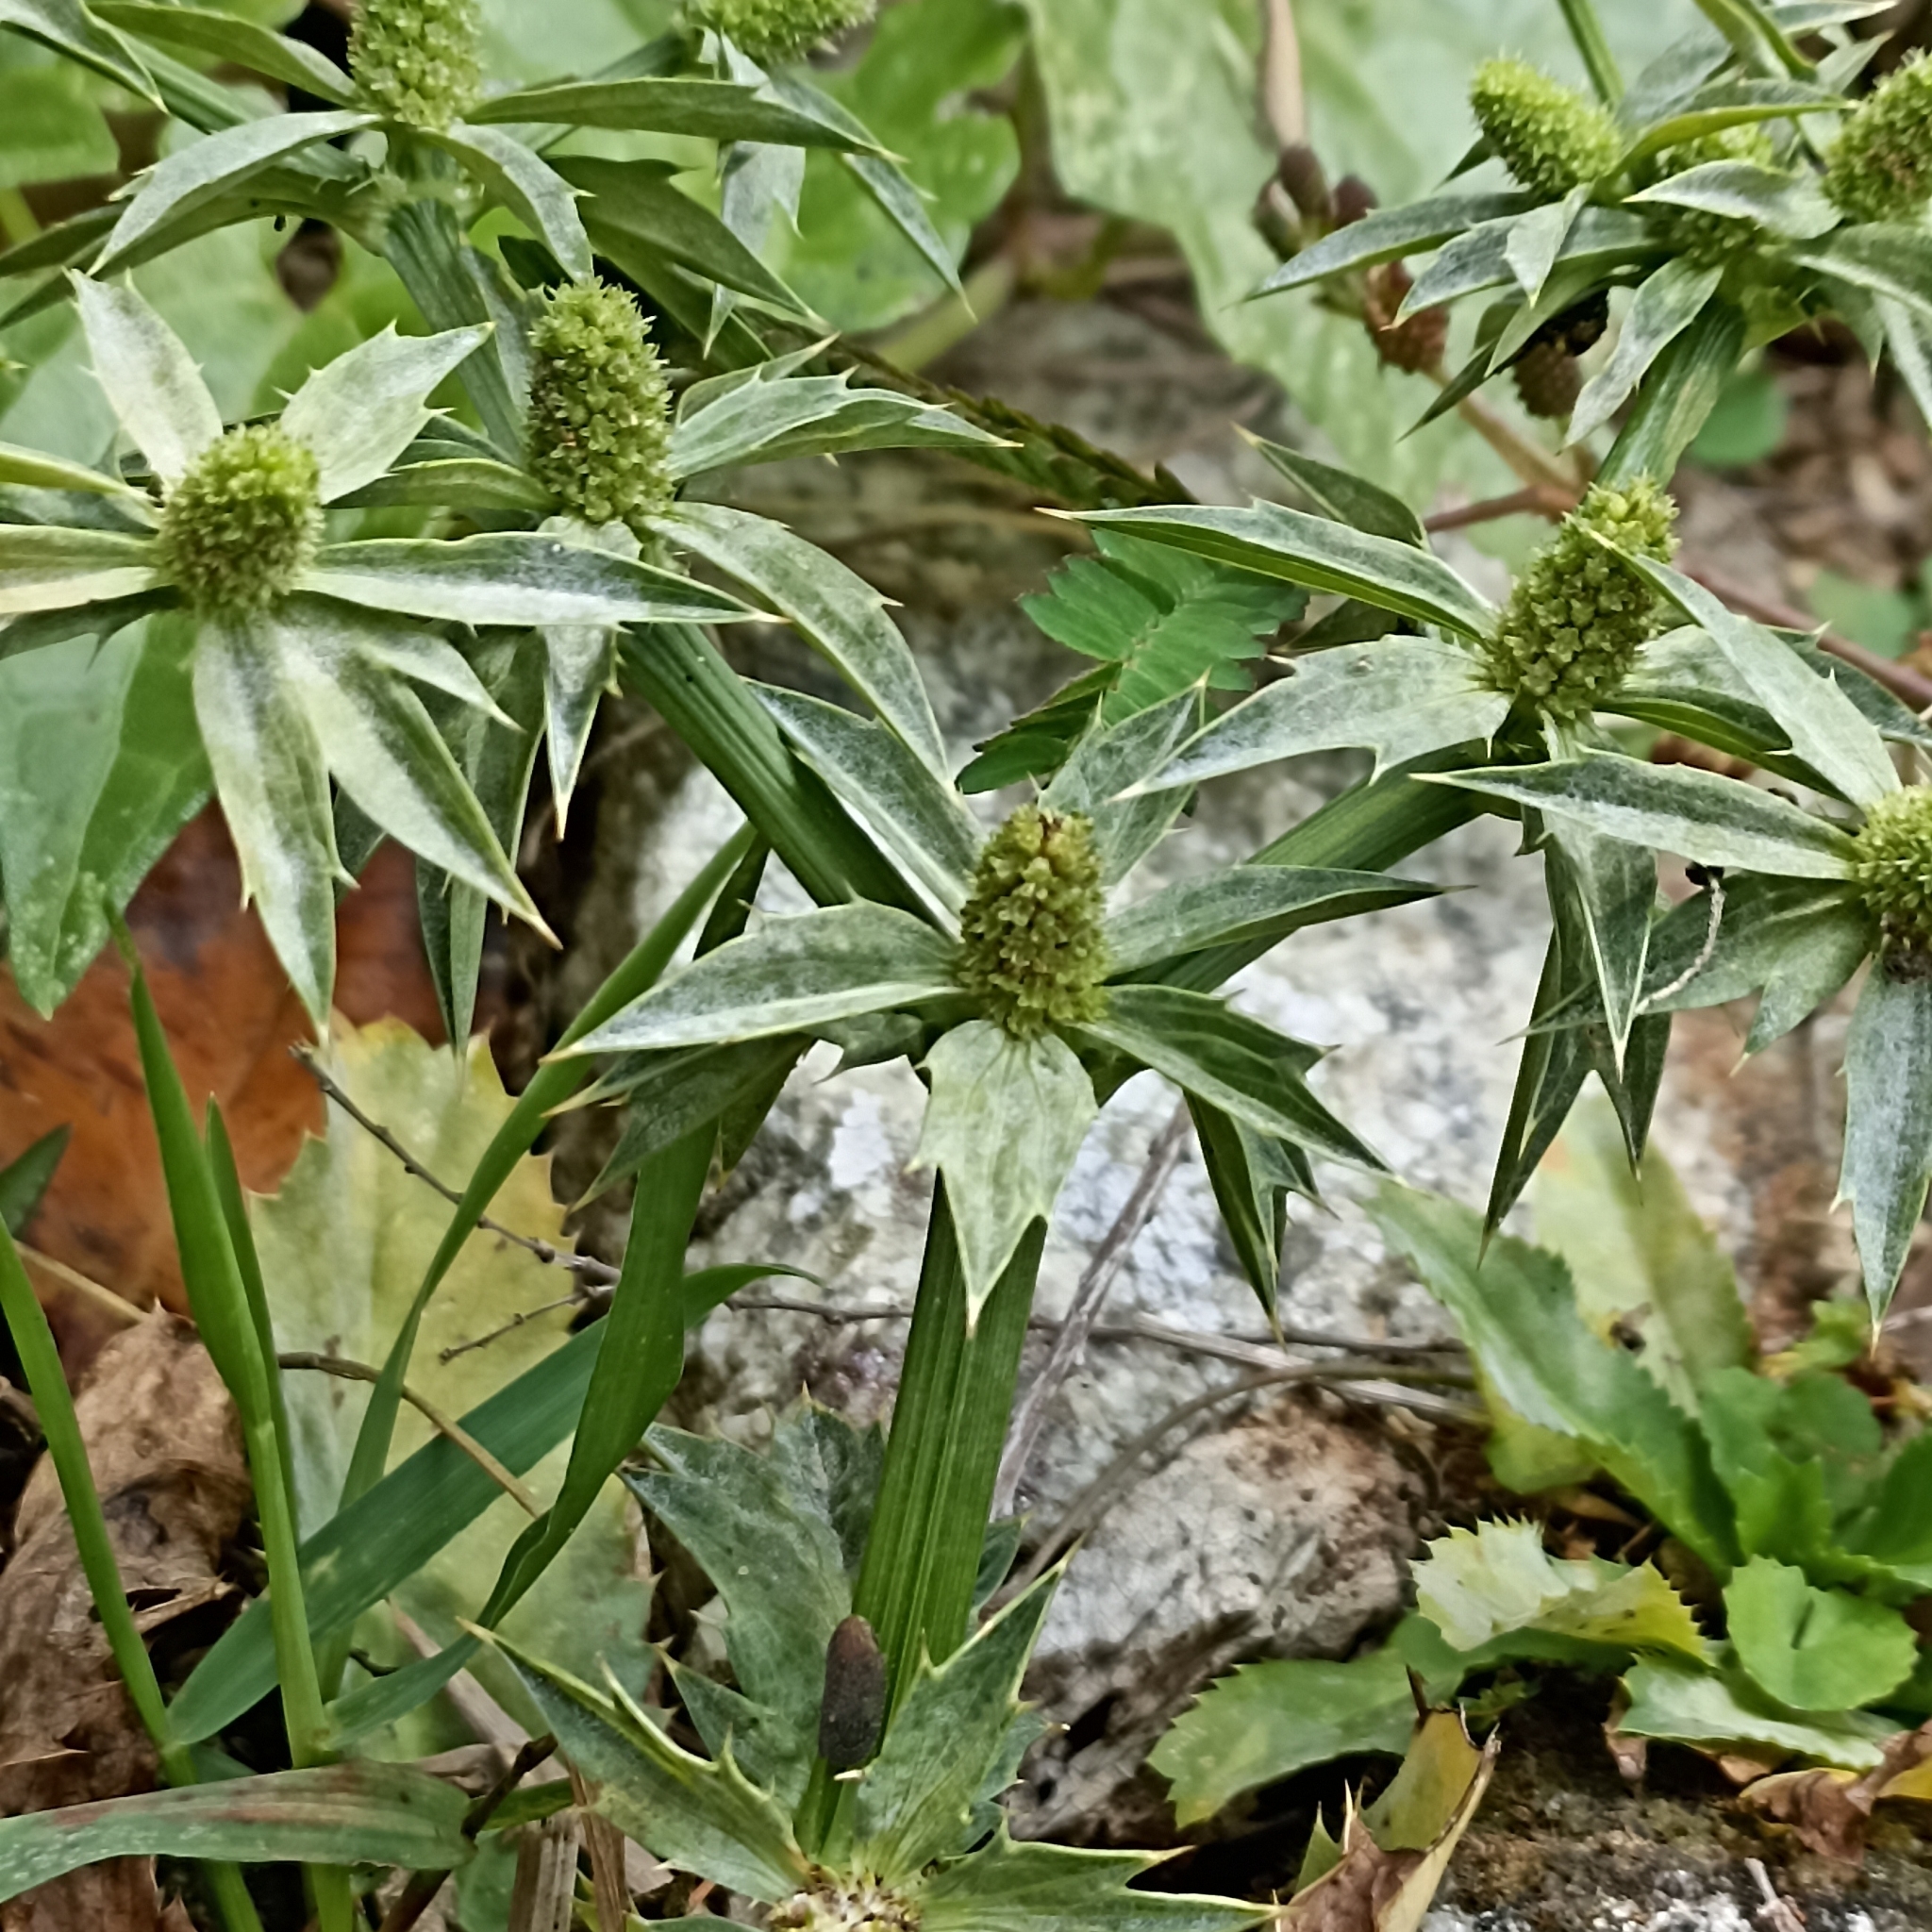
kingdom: Plantae
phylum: Tracheophyta
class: Magnoliopsida
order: Apiales
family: Apiaceae
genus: Eryngium
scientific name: Eryngium foetidum
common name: Fitweed
